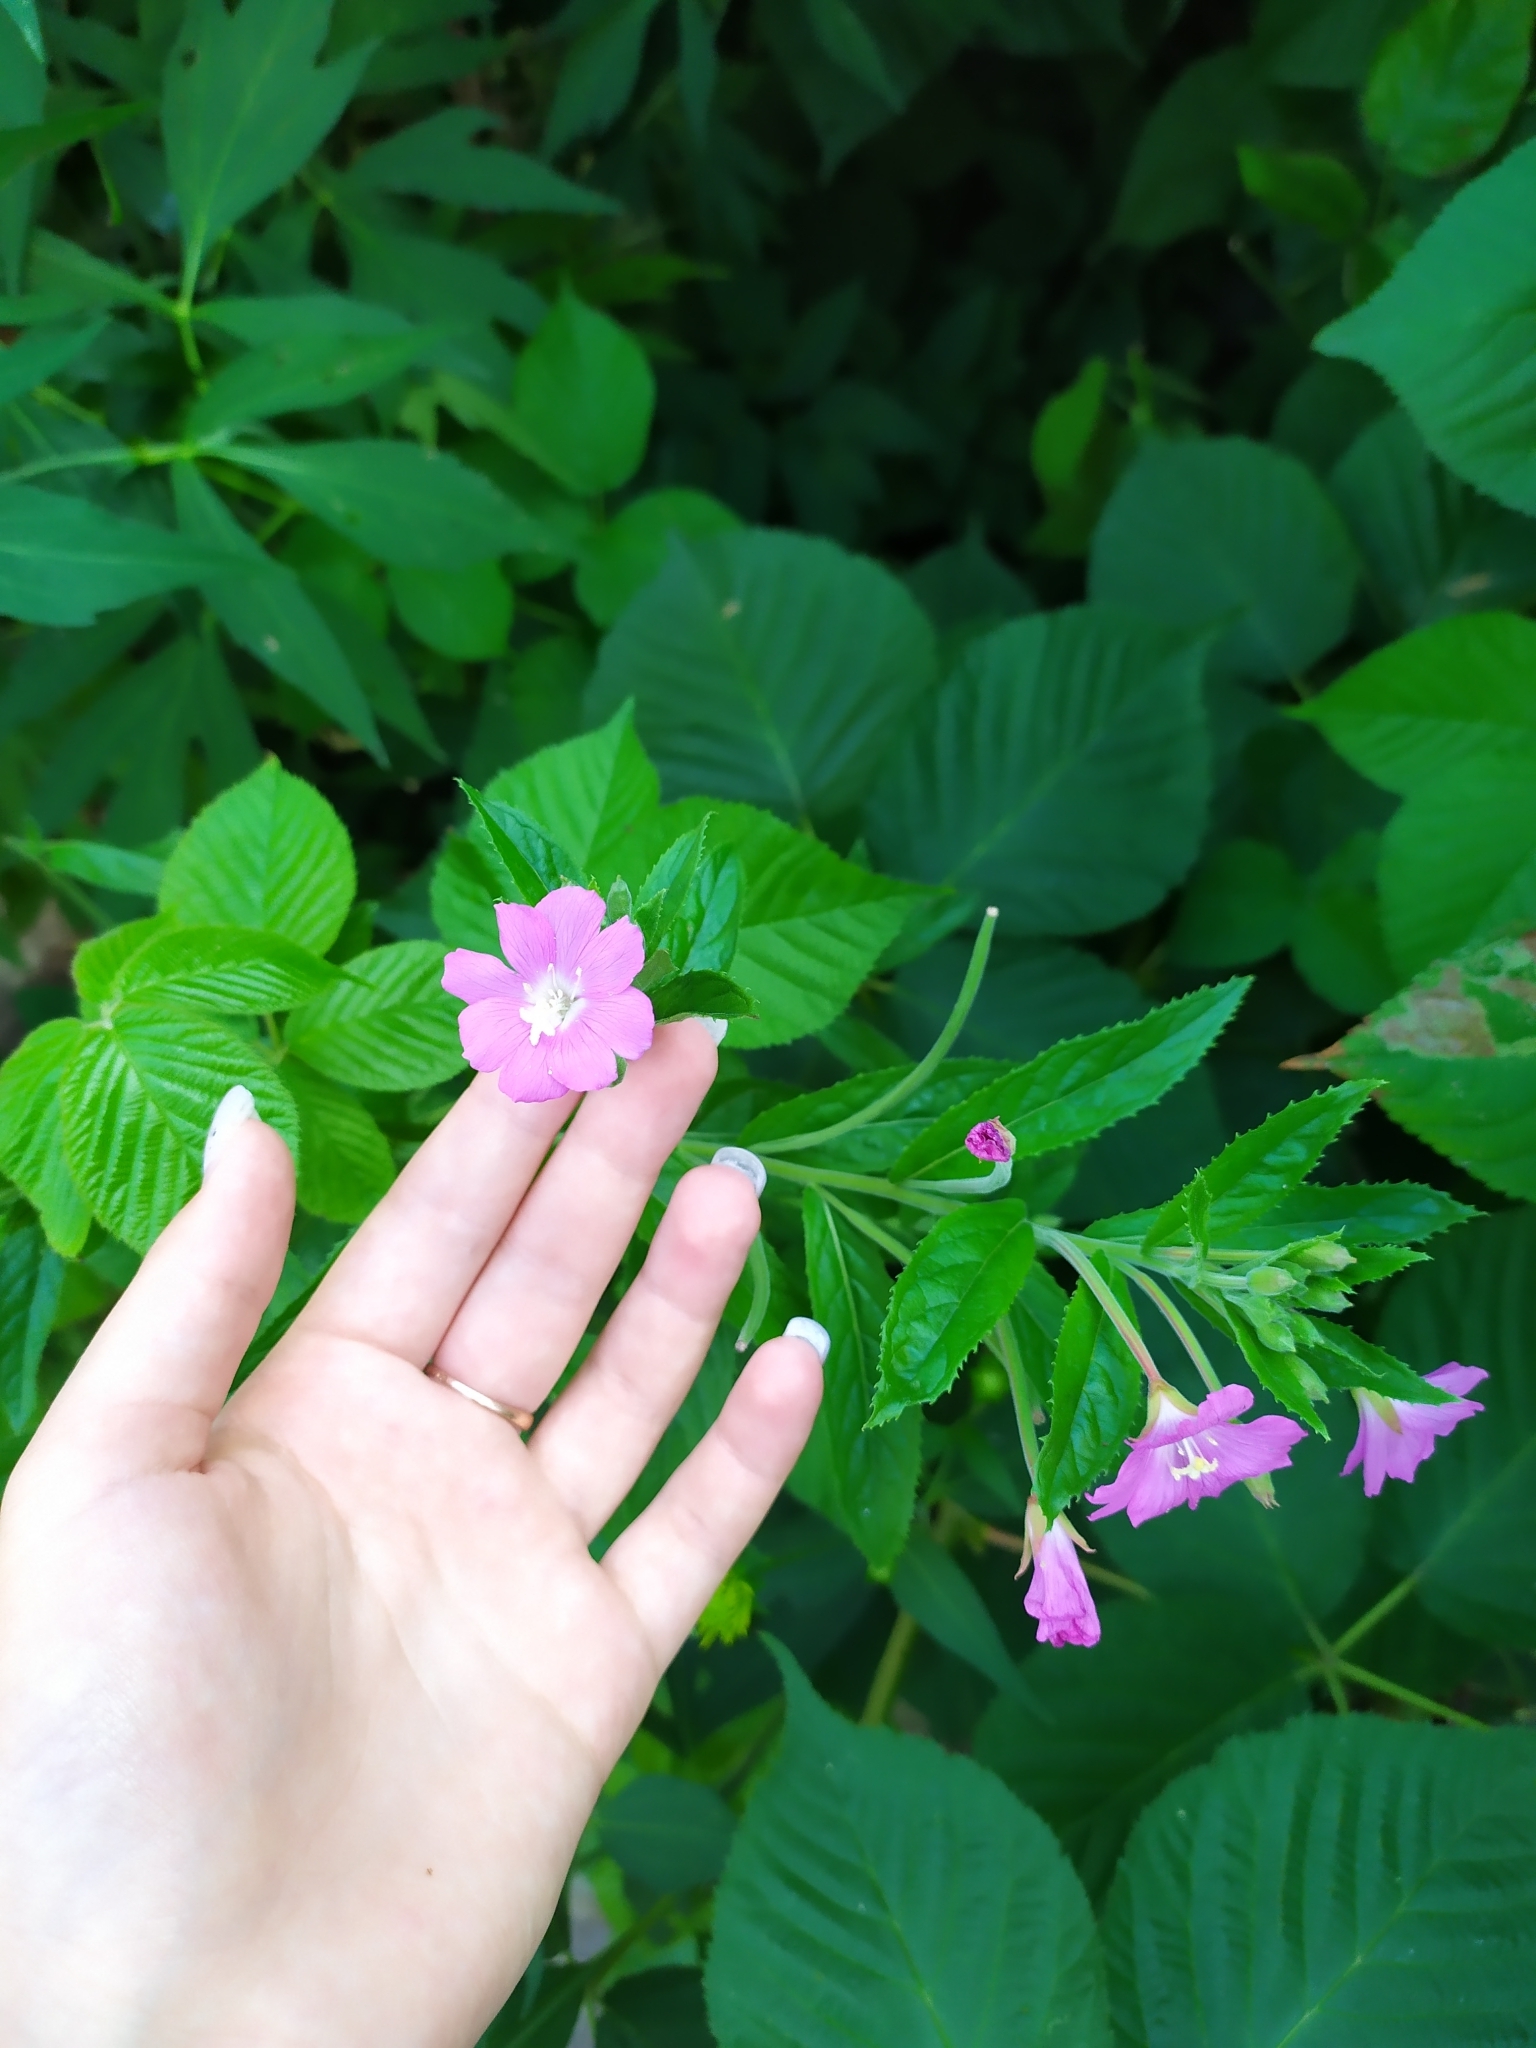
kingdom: Plantae
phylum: Tracheophyta
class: Magnoliopsida
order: Myrtales
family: Onagraceae
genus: Epilobium
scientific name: Epilobium hirsutum
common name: Great willowherb
